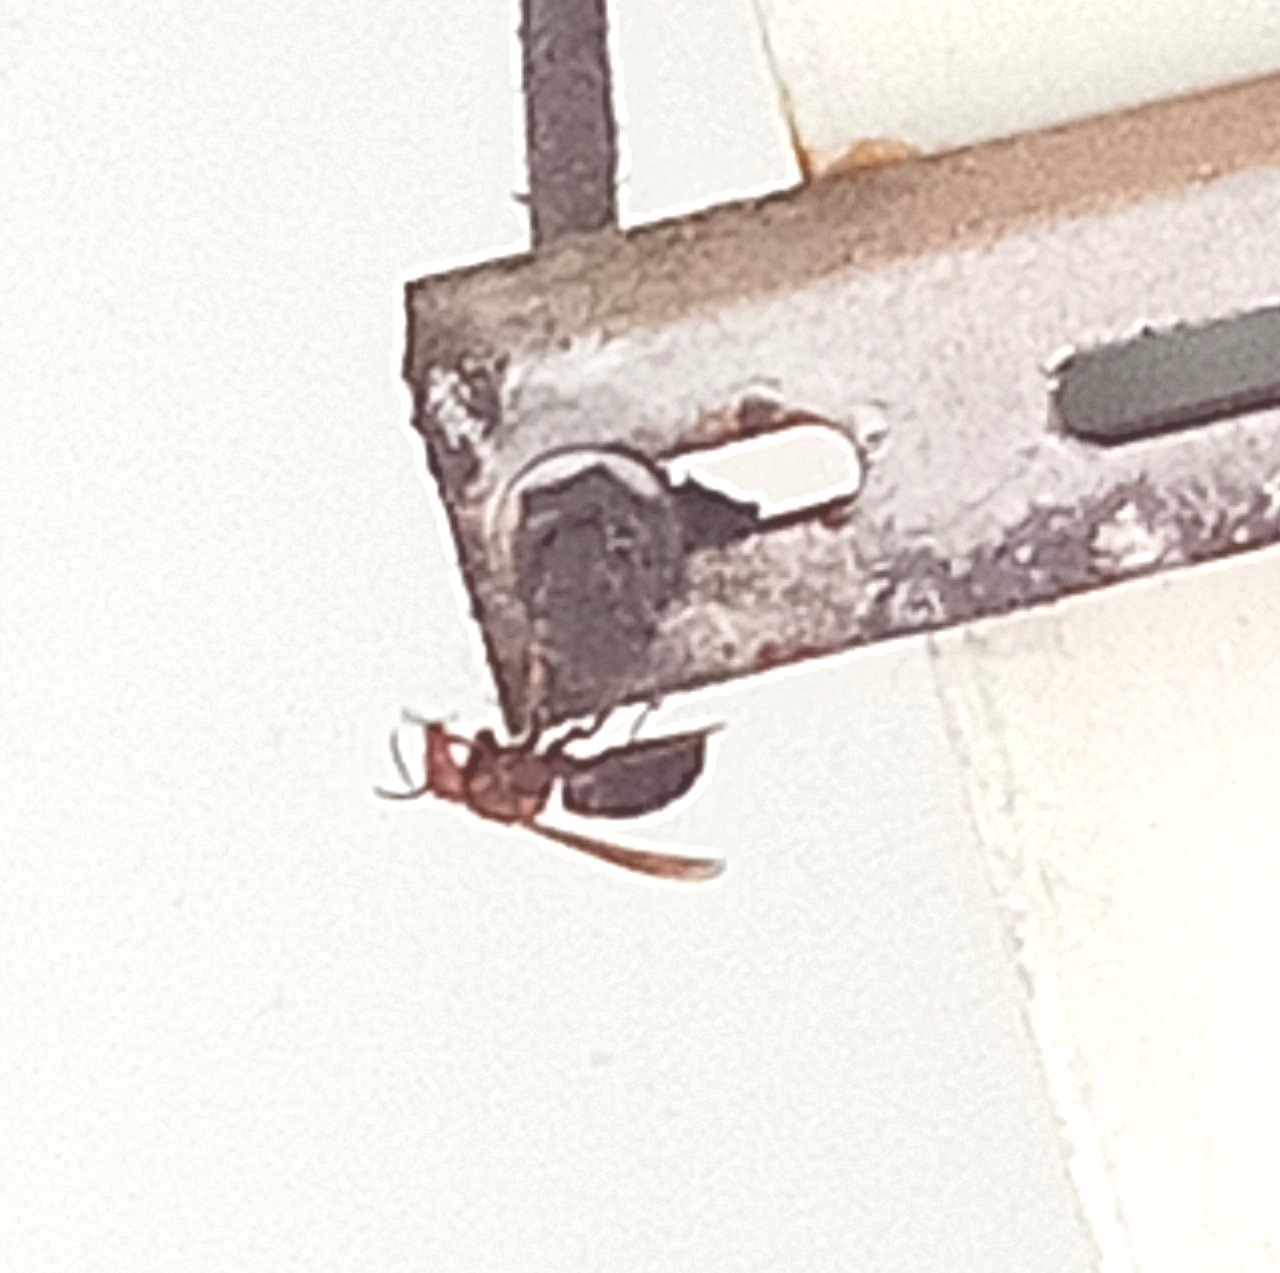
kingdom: Animalia
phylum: Arthropoda
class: Insecta
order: Hymenoptera
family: Vespidae
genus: Vespa
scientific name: Vespa basalis
